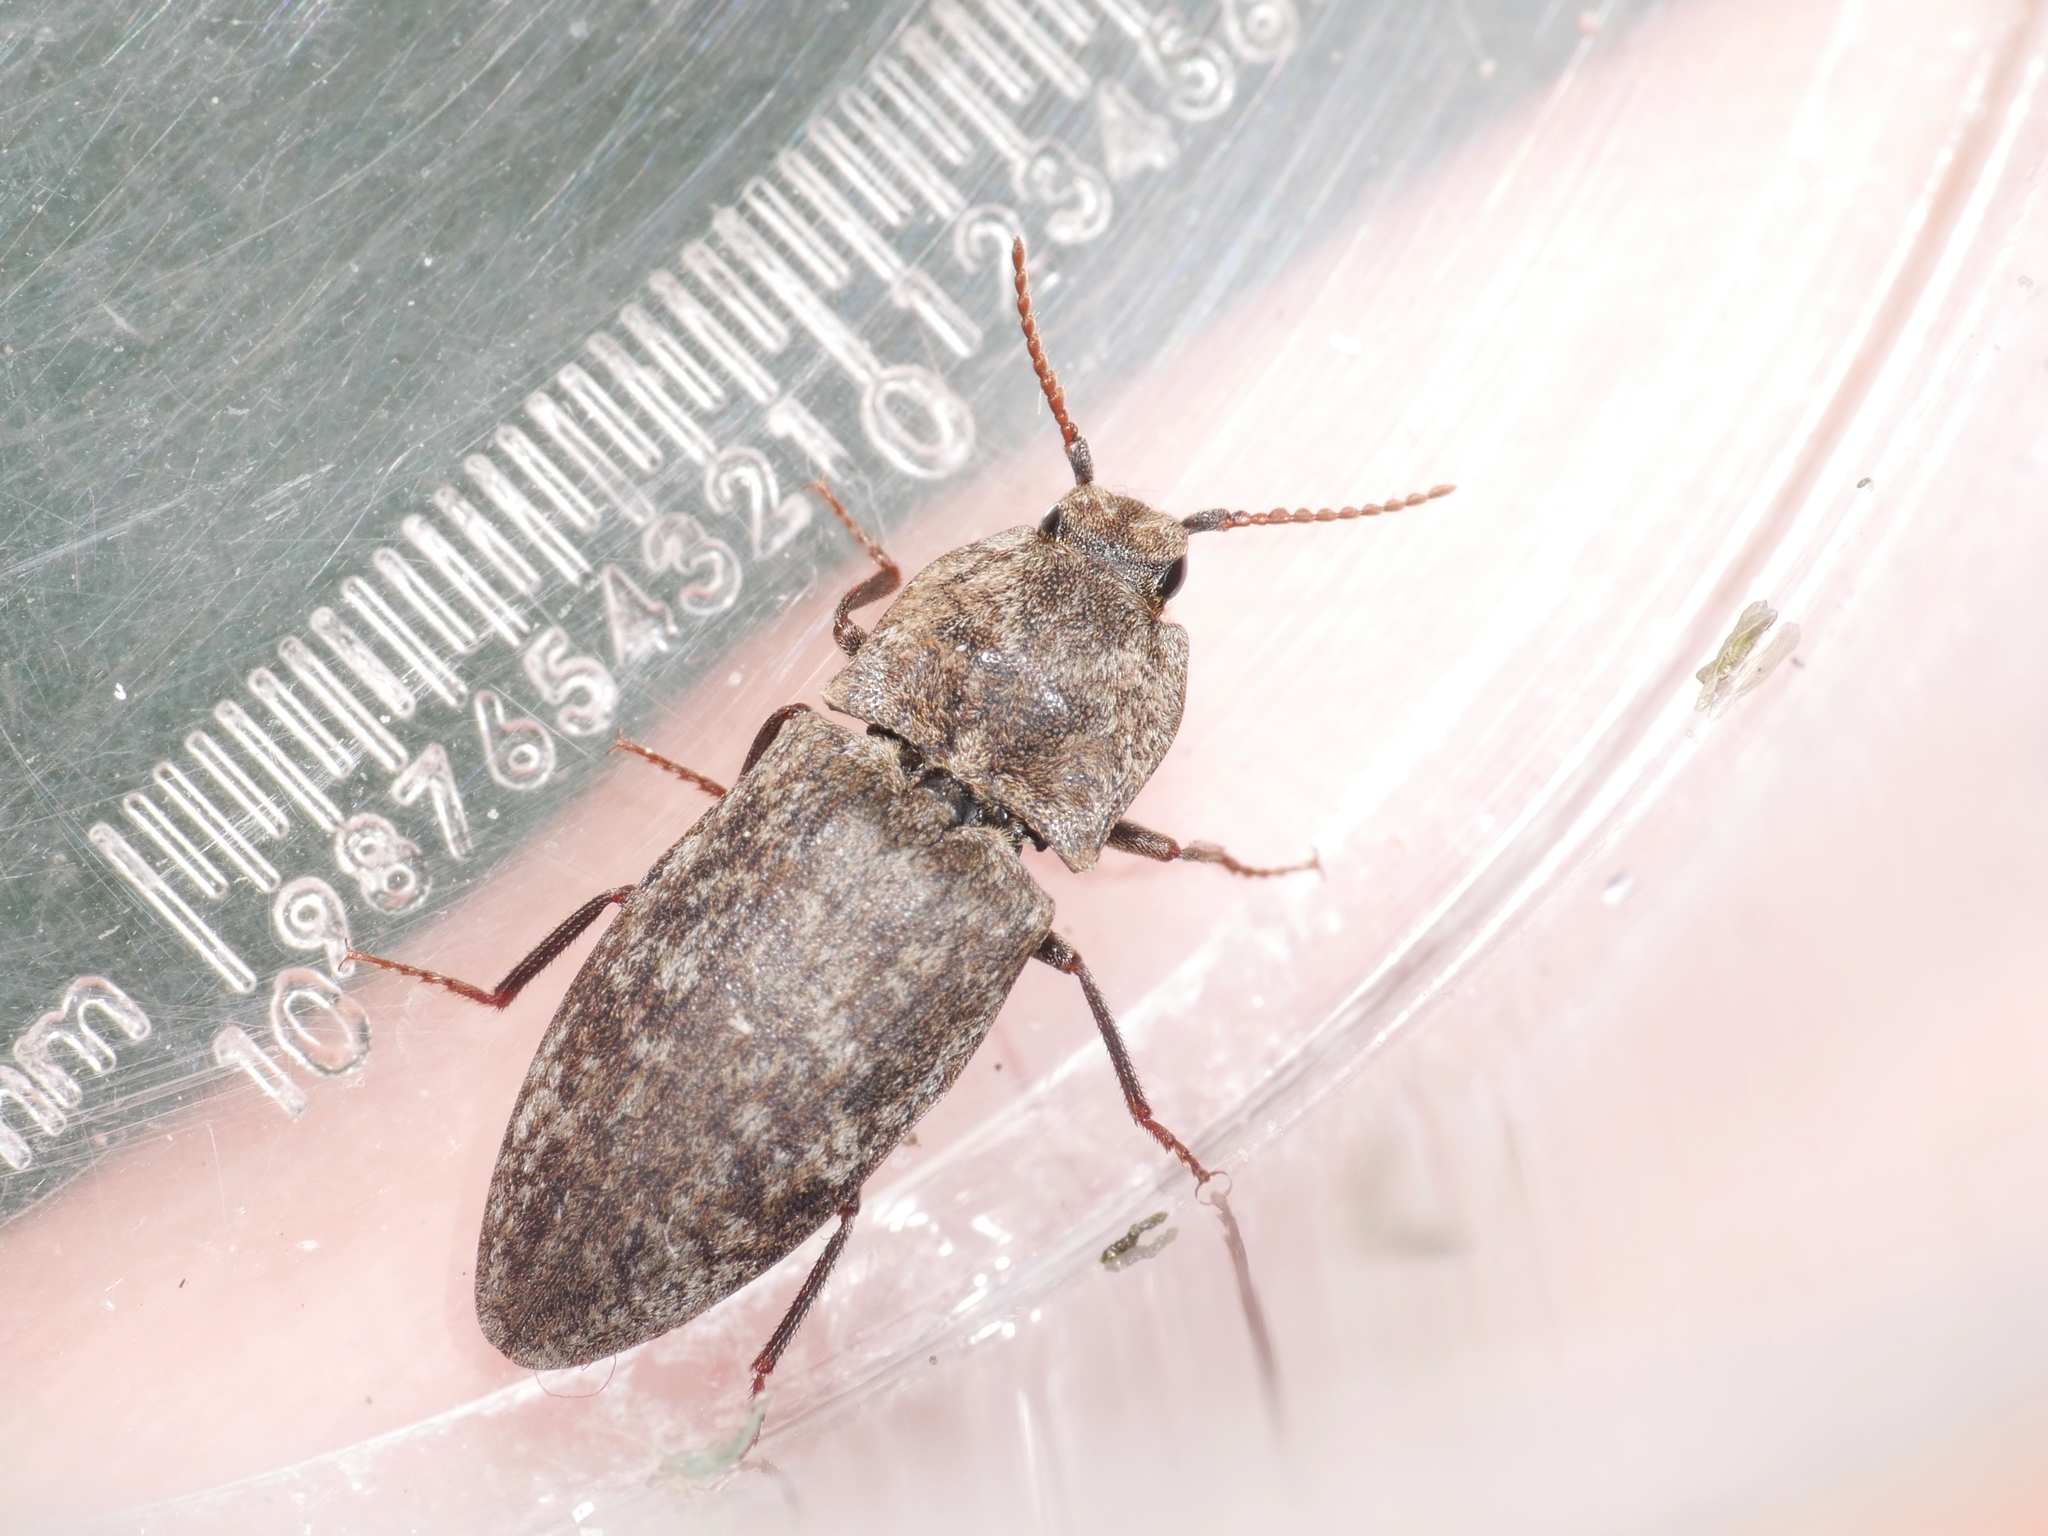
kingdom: Animalia
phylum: Arthropoda
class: Insecta
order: Coleoptera
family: Elateridae
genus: Agrypnus
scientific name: Agrypnus murinus
